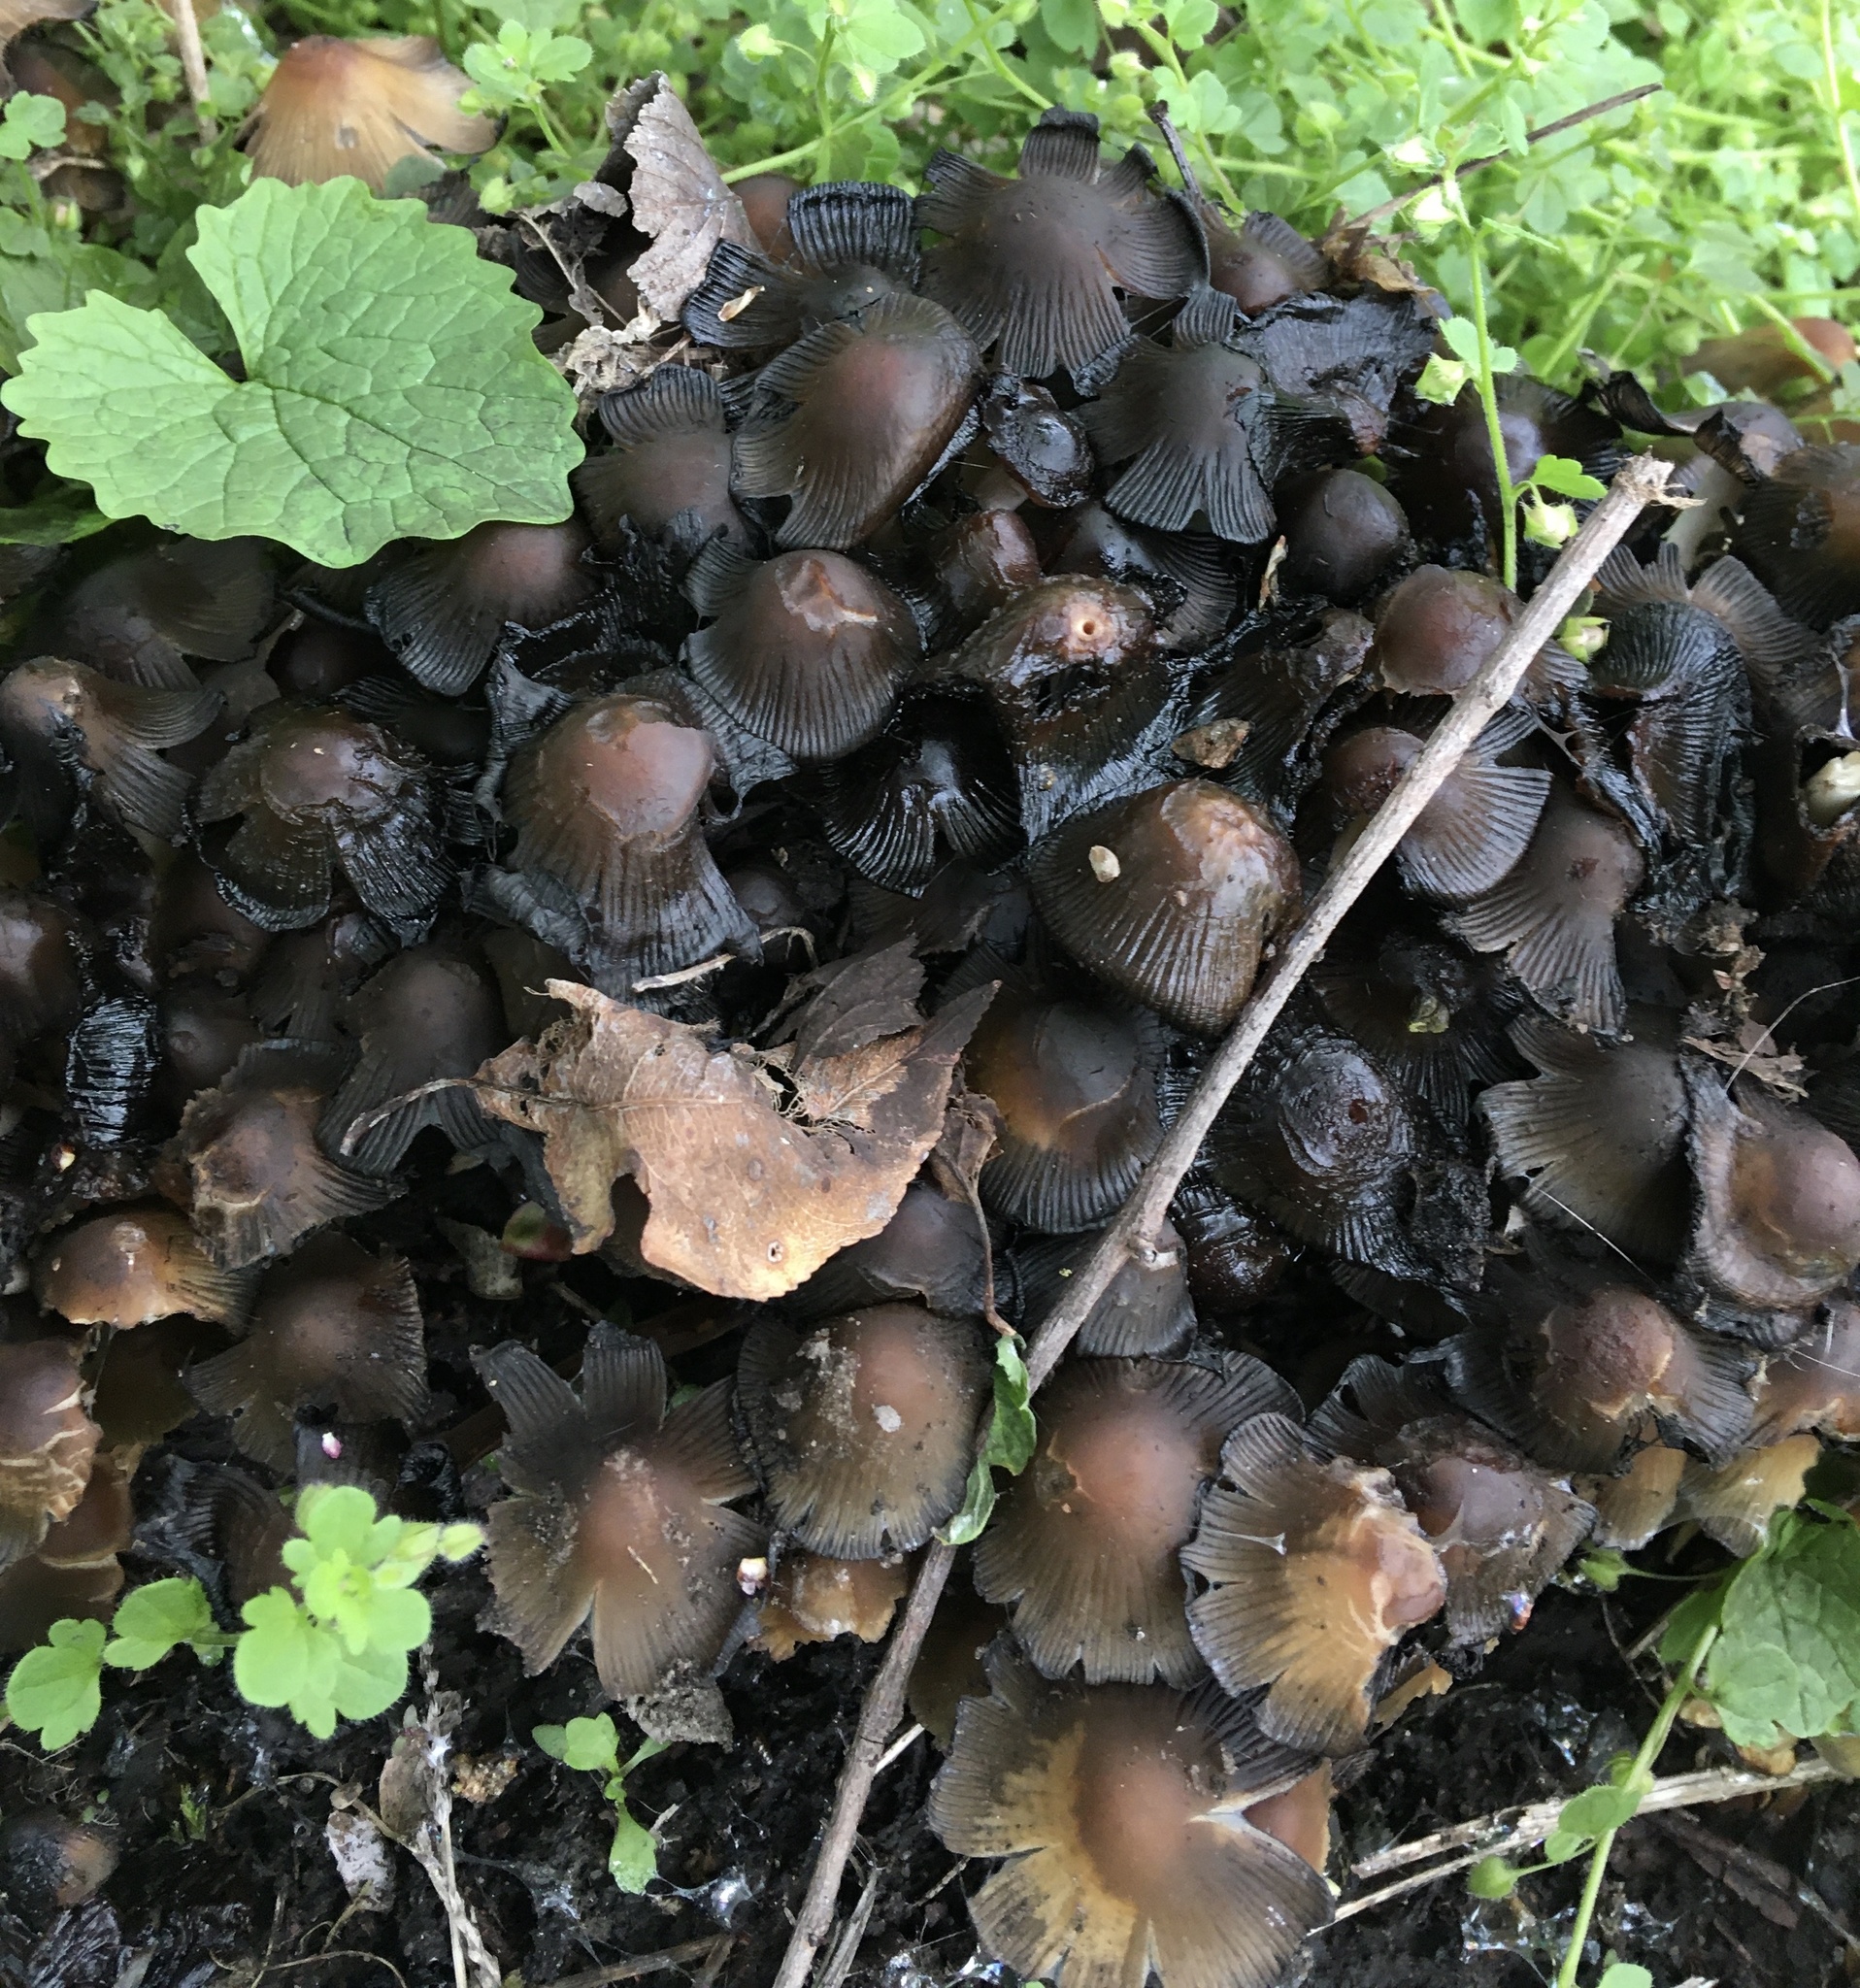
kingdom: Fungi
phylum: Basidiomycota
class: Agaricomycetes
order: Agaricales
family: Psathyrellaceae
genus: Coprinellus
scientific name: Coprinellus micaceus
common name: Glistening ink-cap
